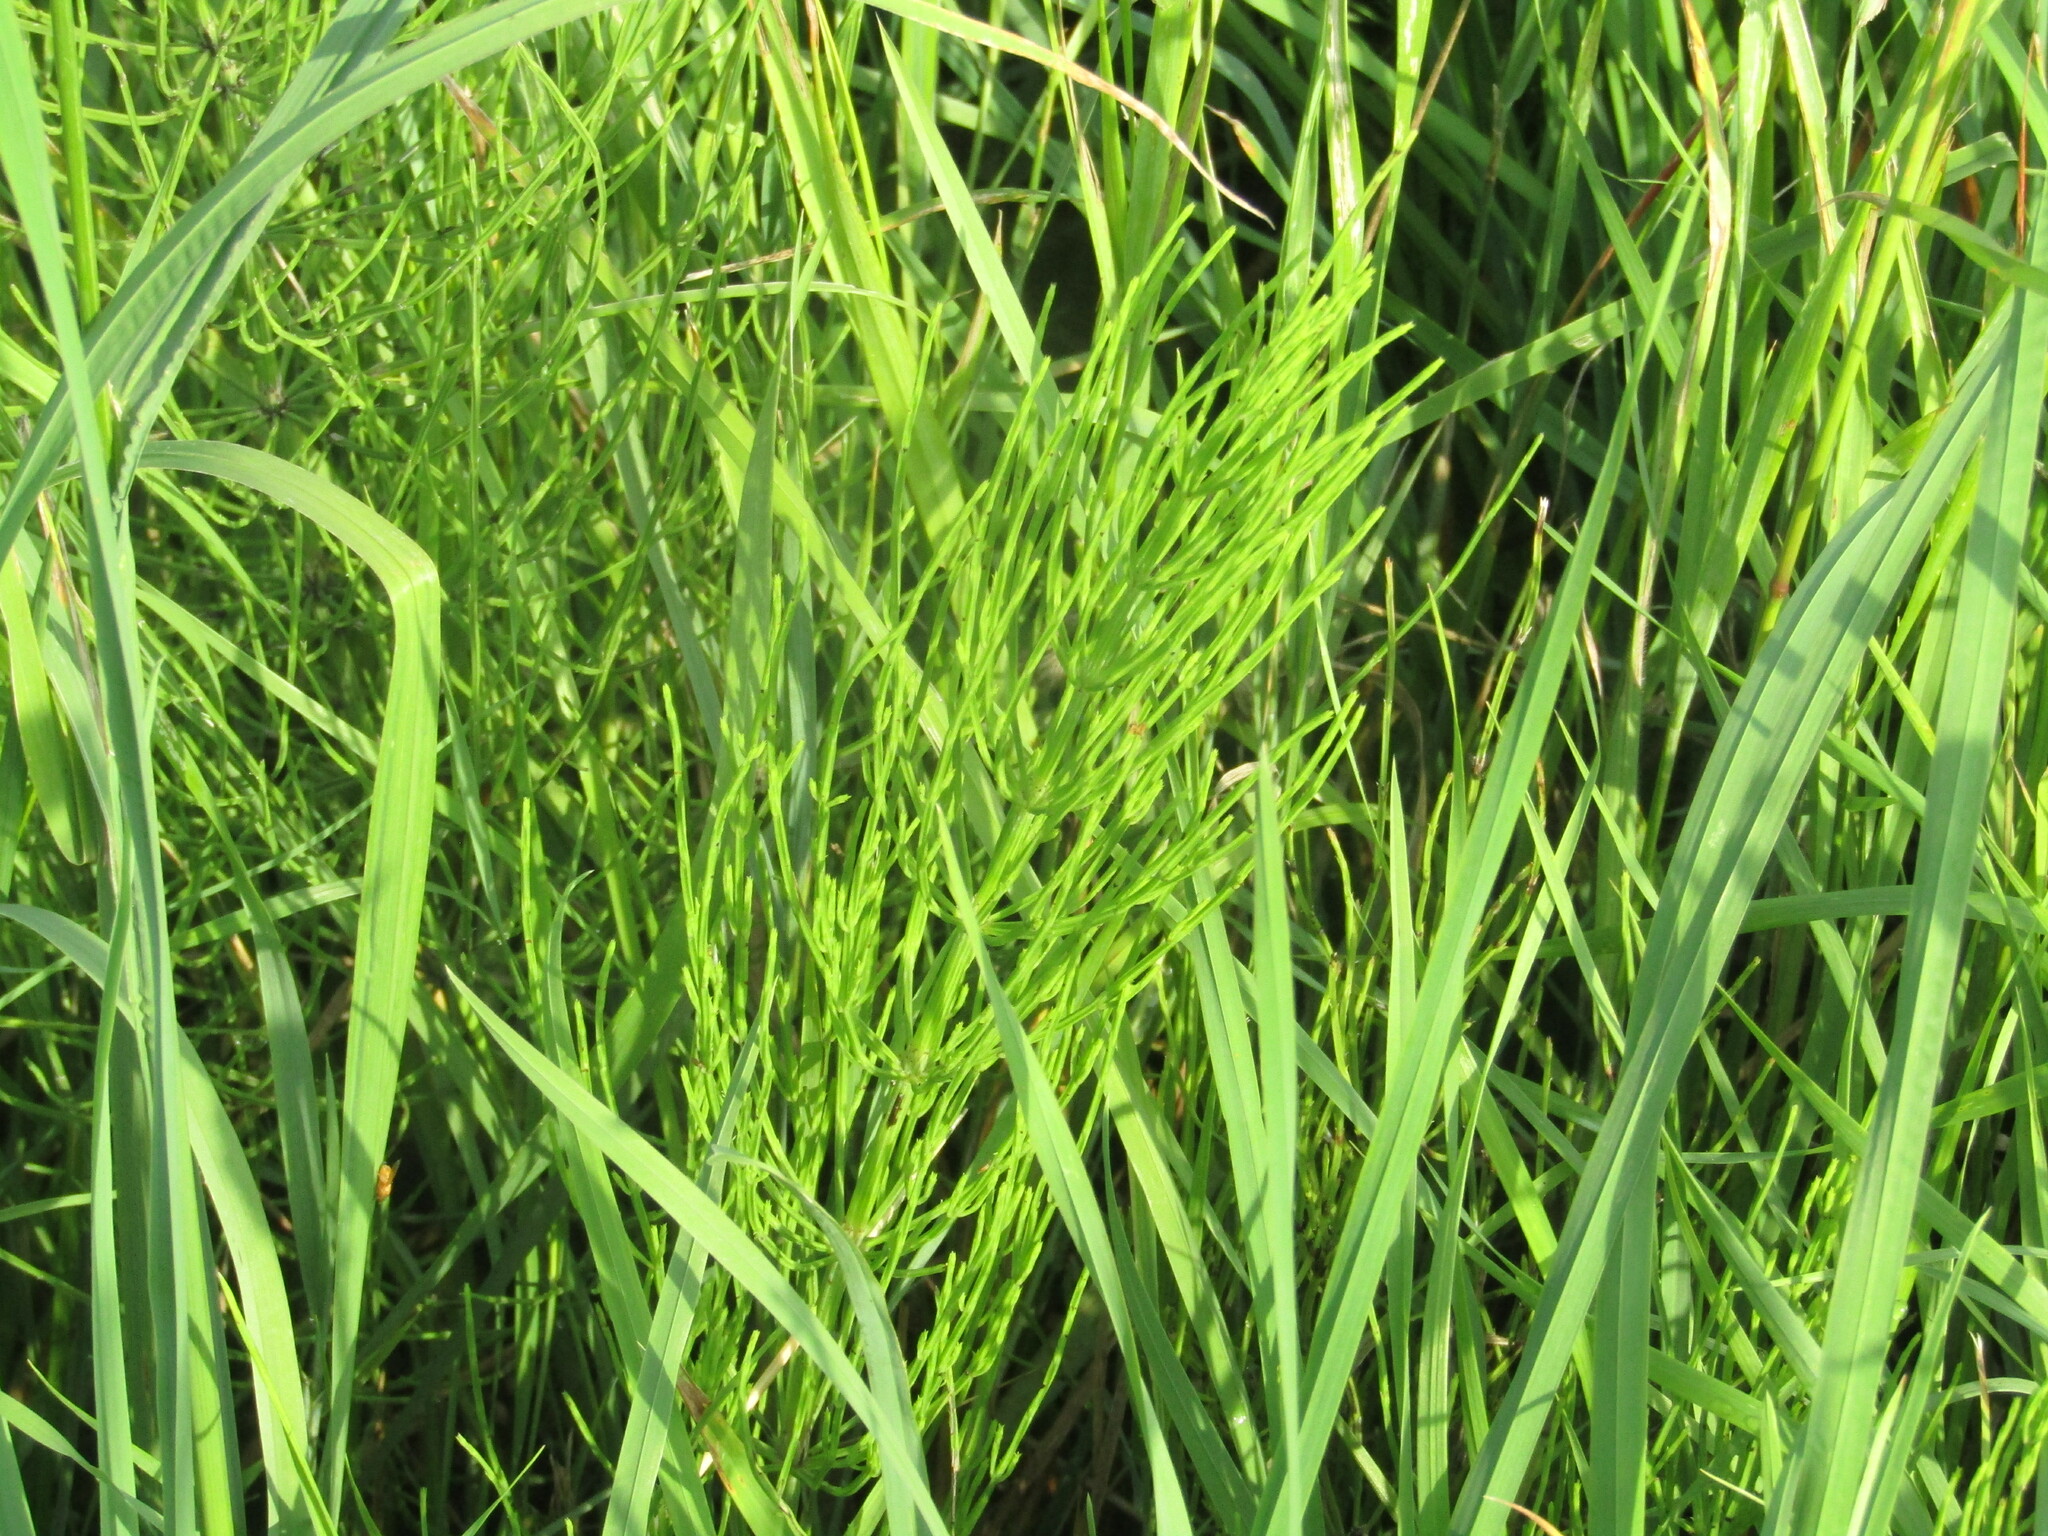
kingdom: Plantae
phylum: Tracheophyta
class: Polypodiopsida
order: Equisetales
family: Equisetaceae
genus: Equisetum
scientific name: Equisetum arvense
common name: Field horsetail
